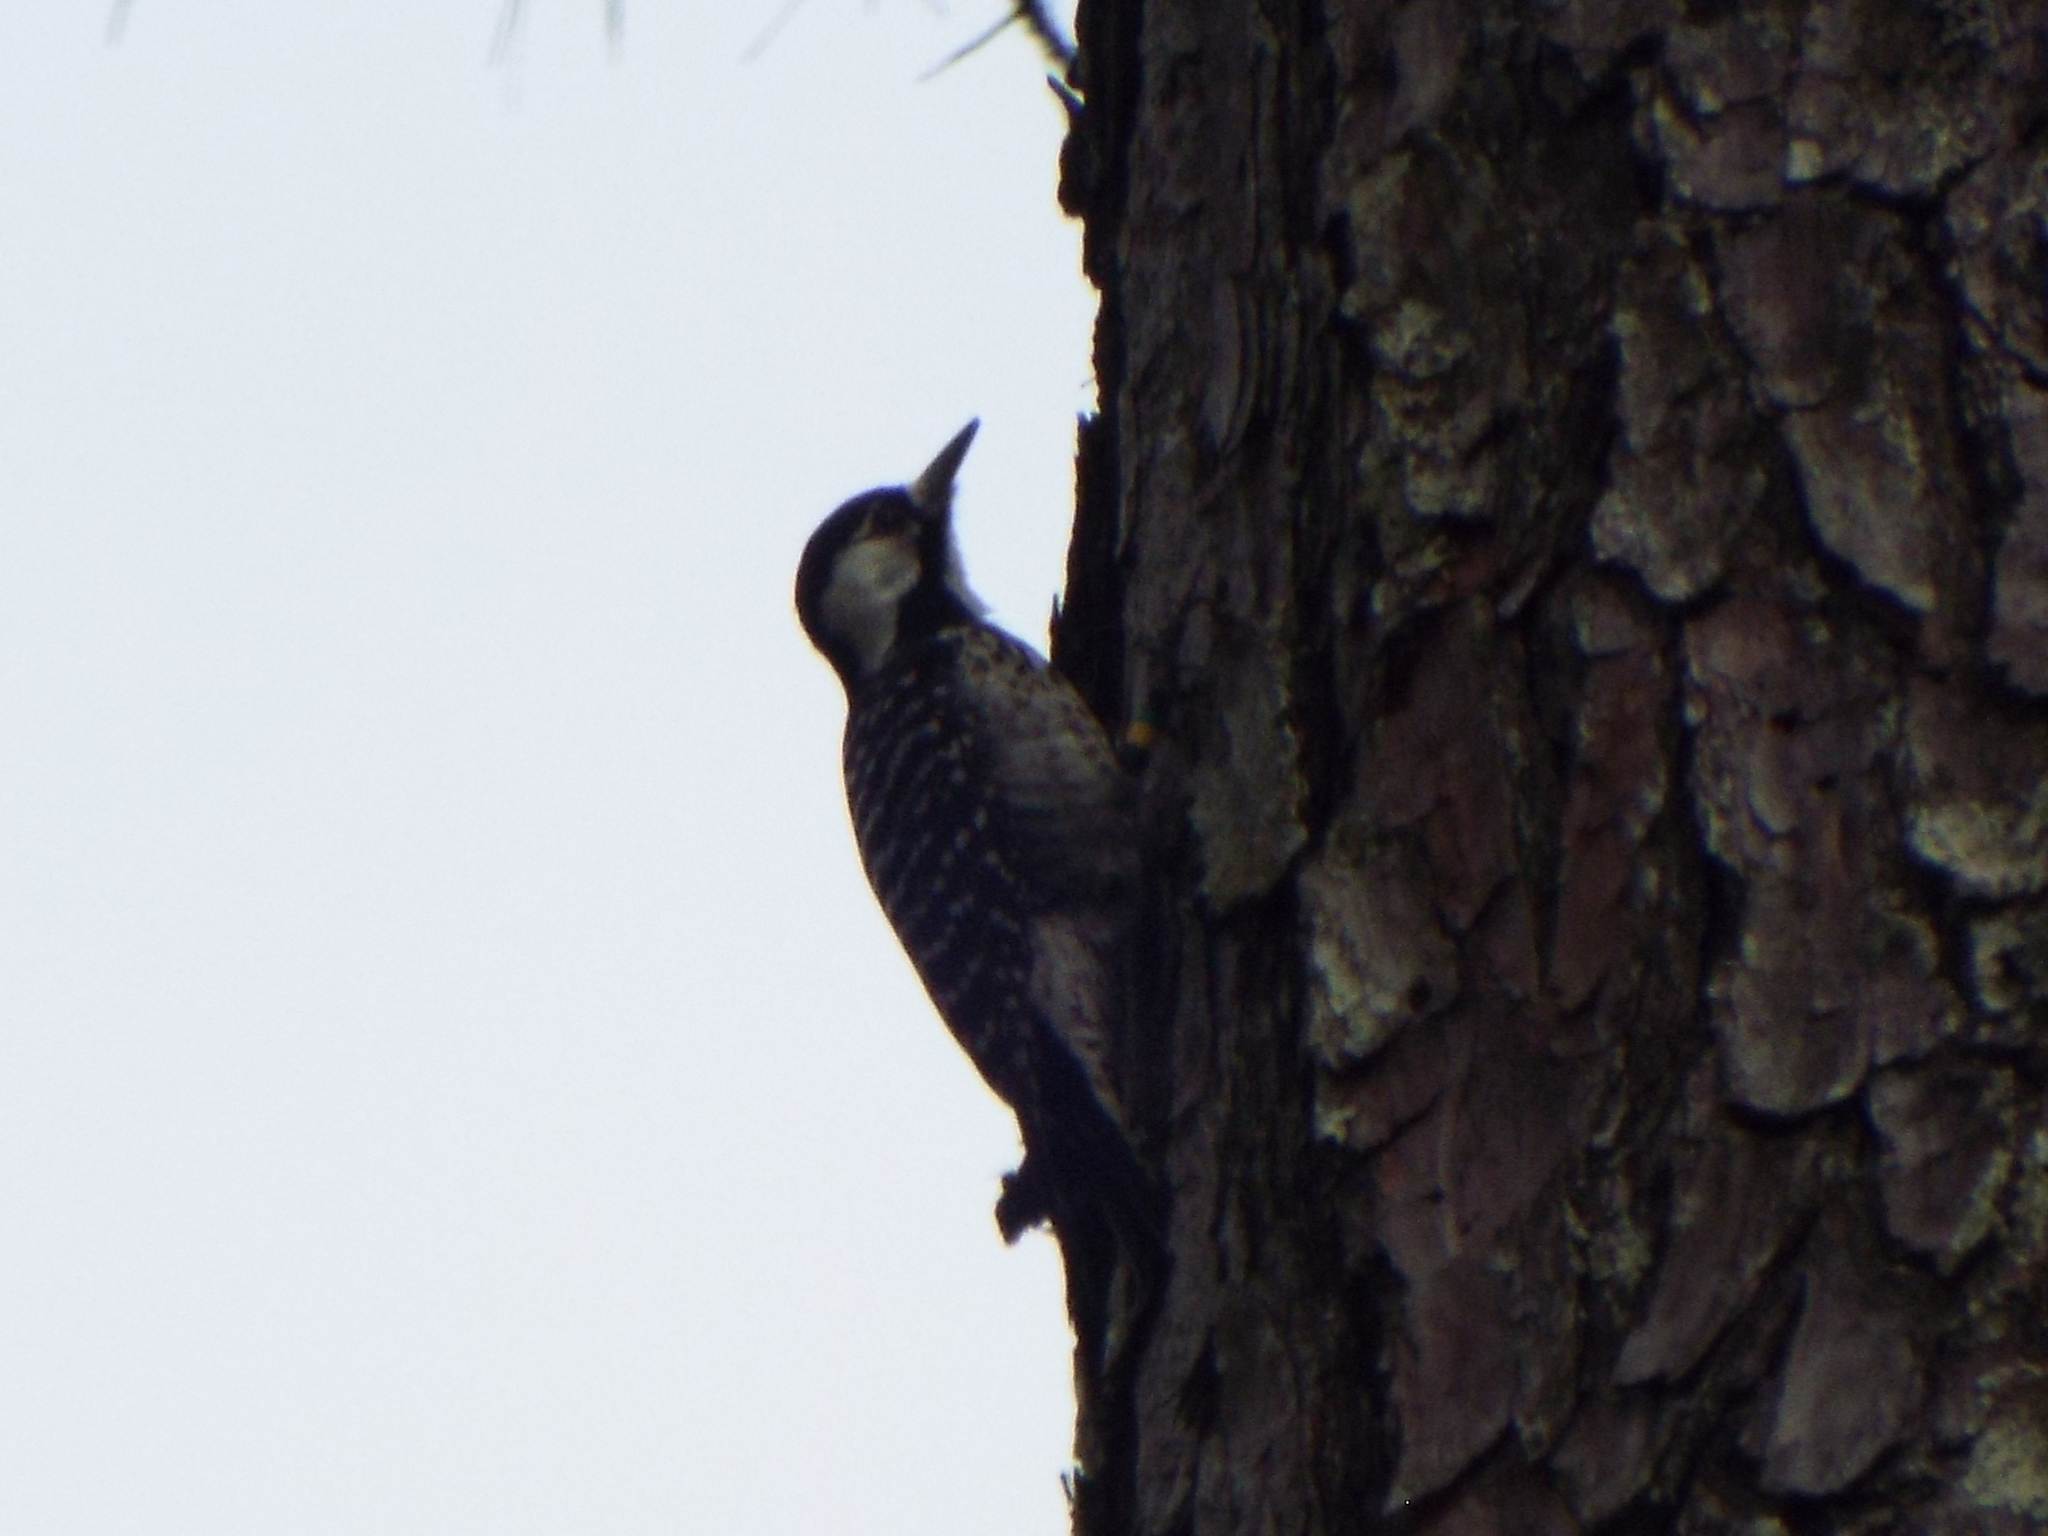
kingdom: Animalia
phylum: Chordata
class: Aves
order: Piciformes
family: Picidae
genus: Leuconotopicus
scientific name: Leuconotopicus borealis
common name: Red-cockaded woodpecker
